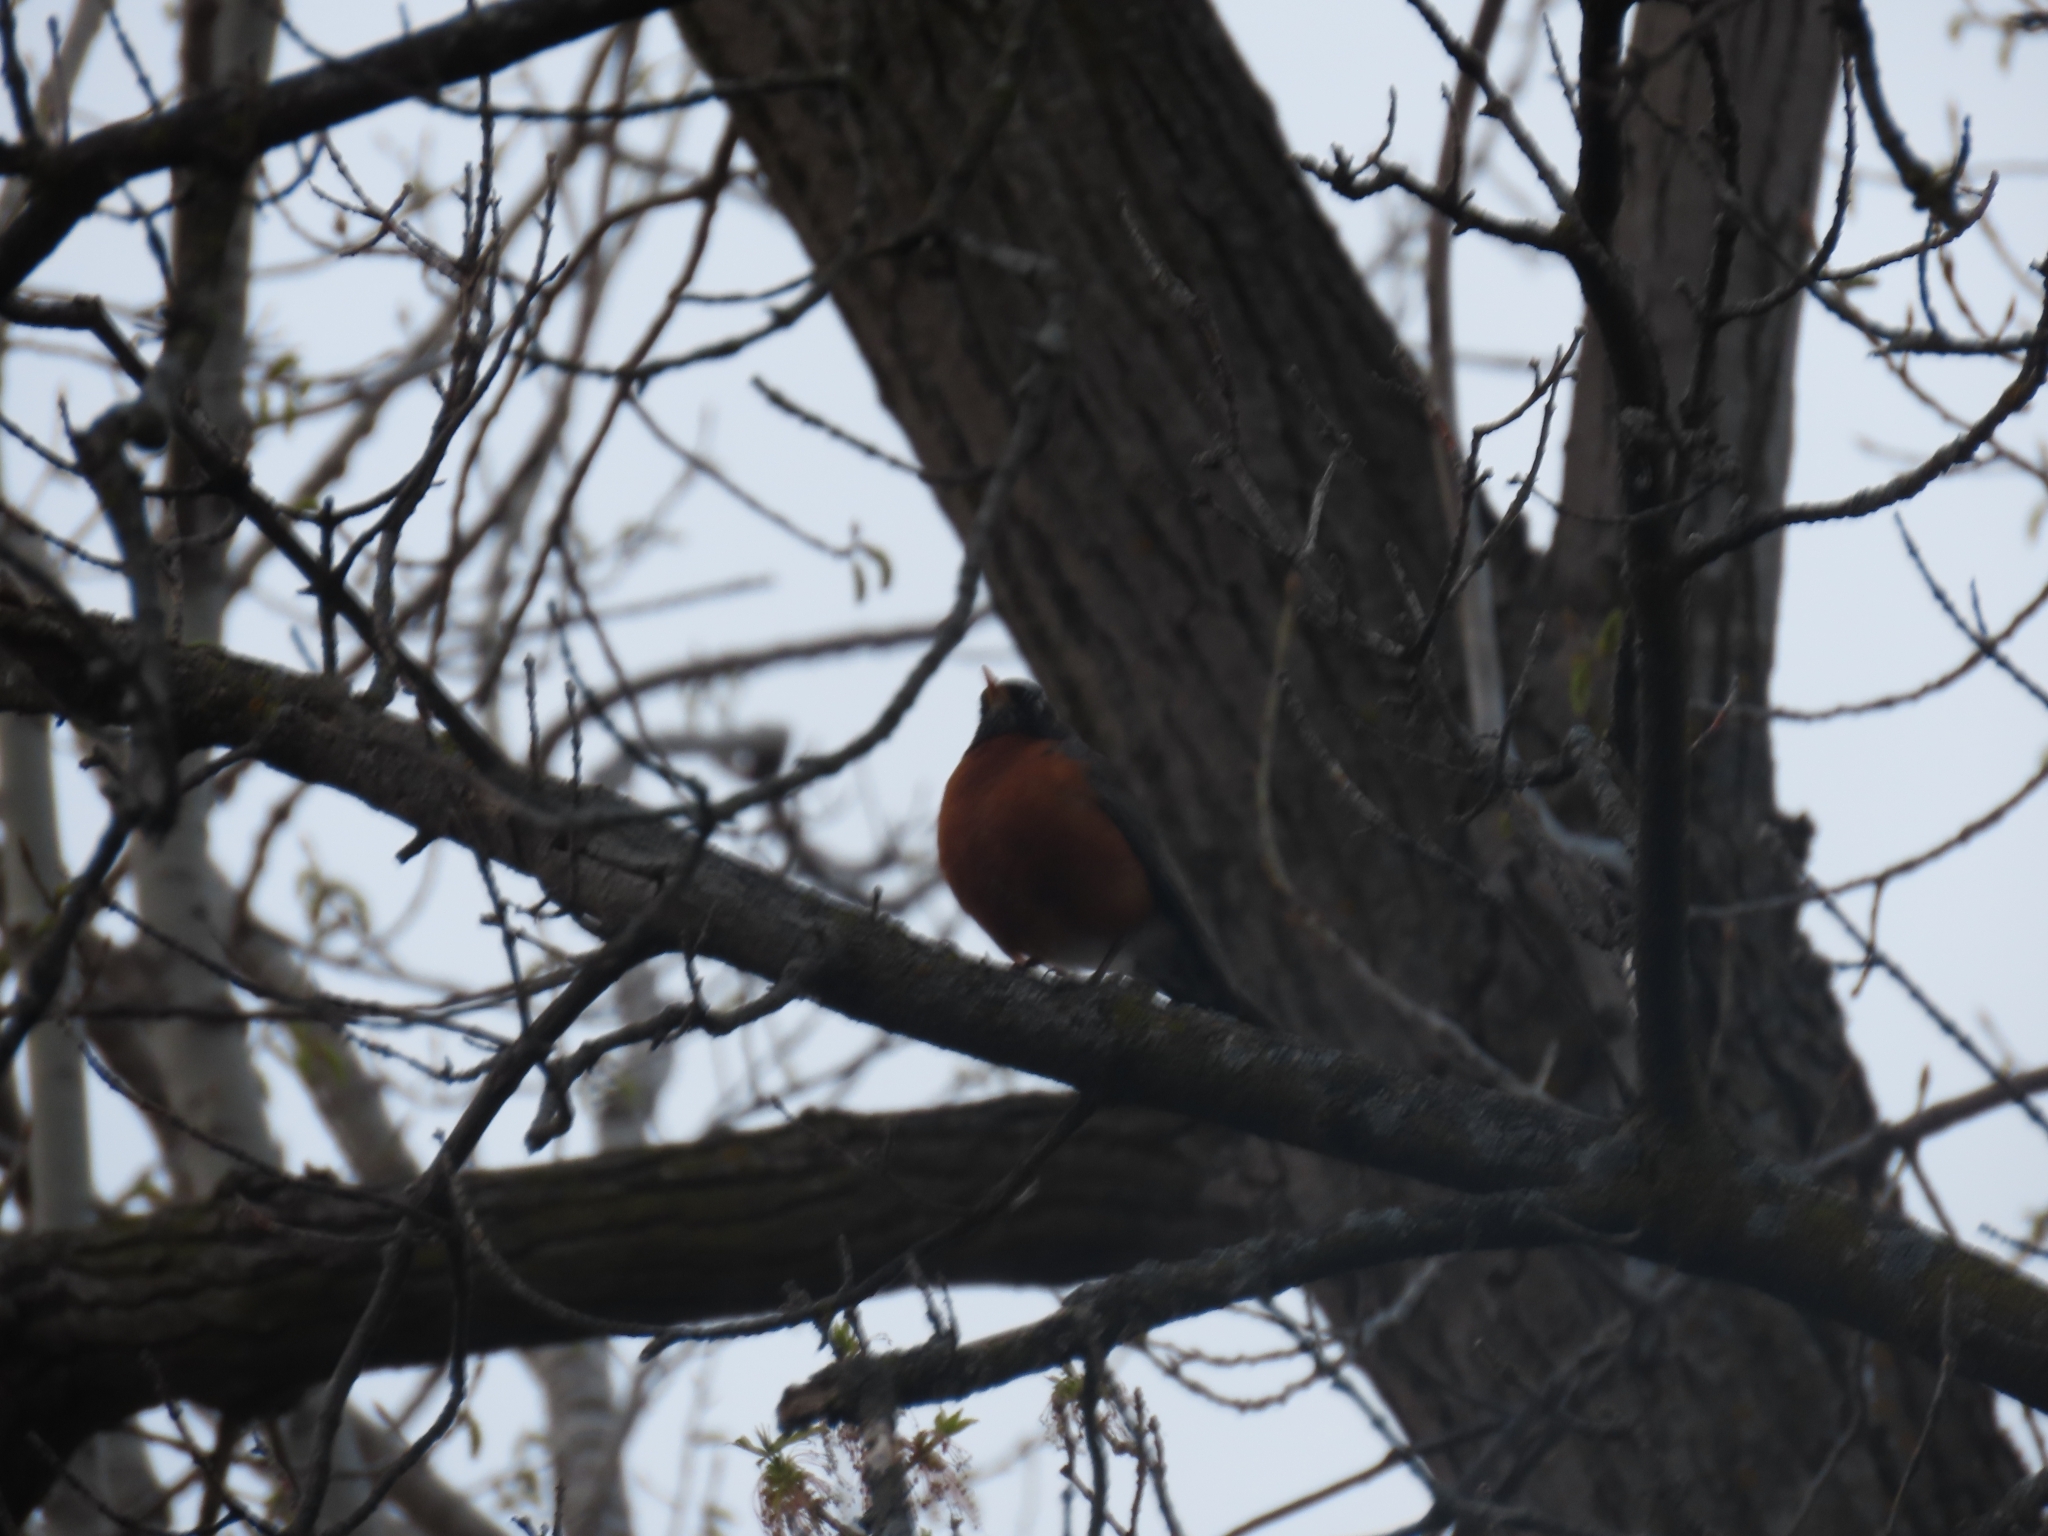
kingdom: Animalia
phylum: Chordata
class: Aves
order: Passeriformes
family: Turdidae
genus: Turdus
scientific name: Turdus migratorius
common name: American robin
